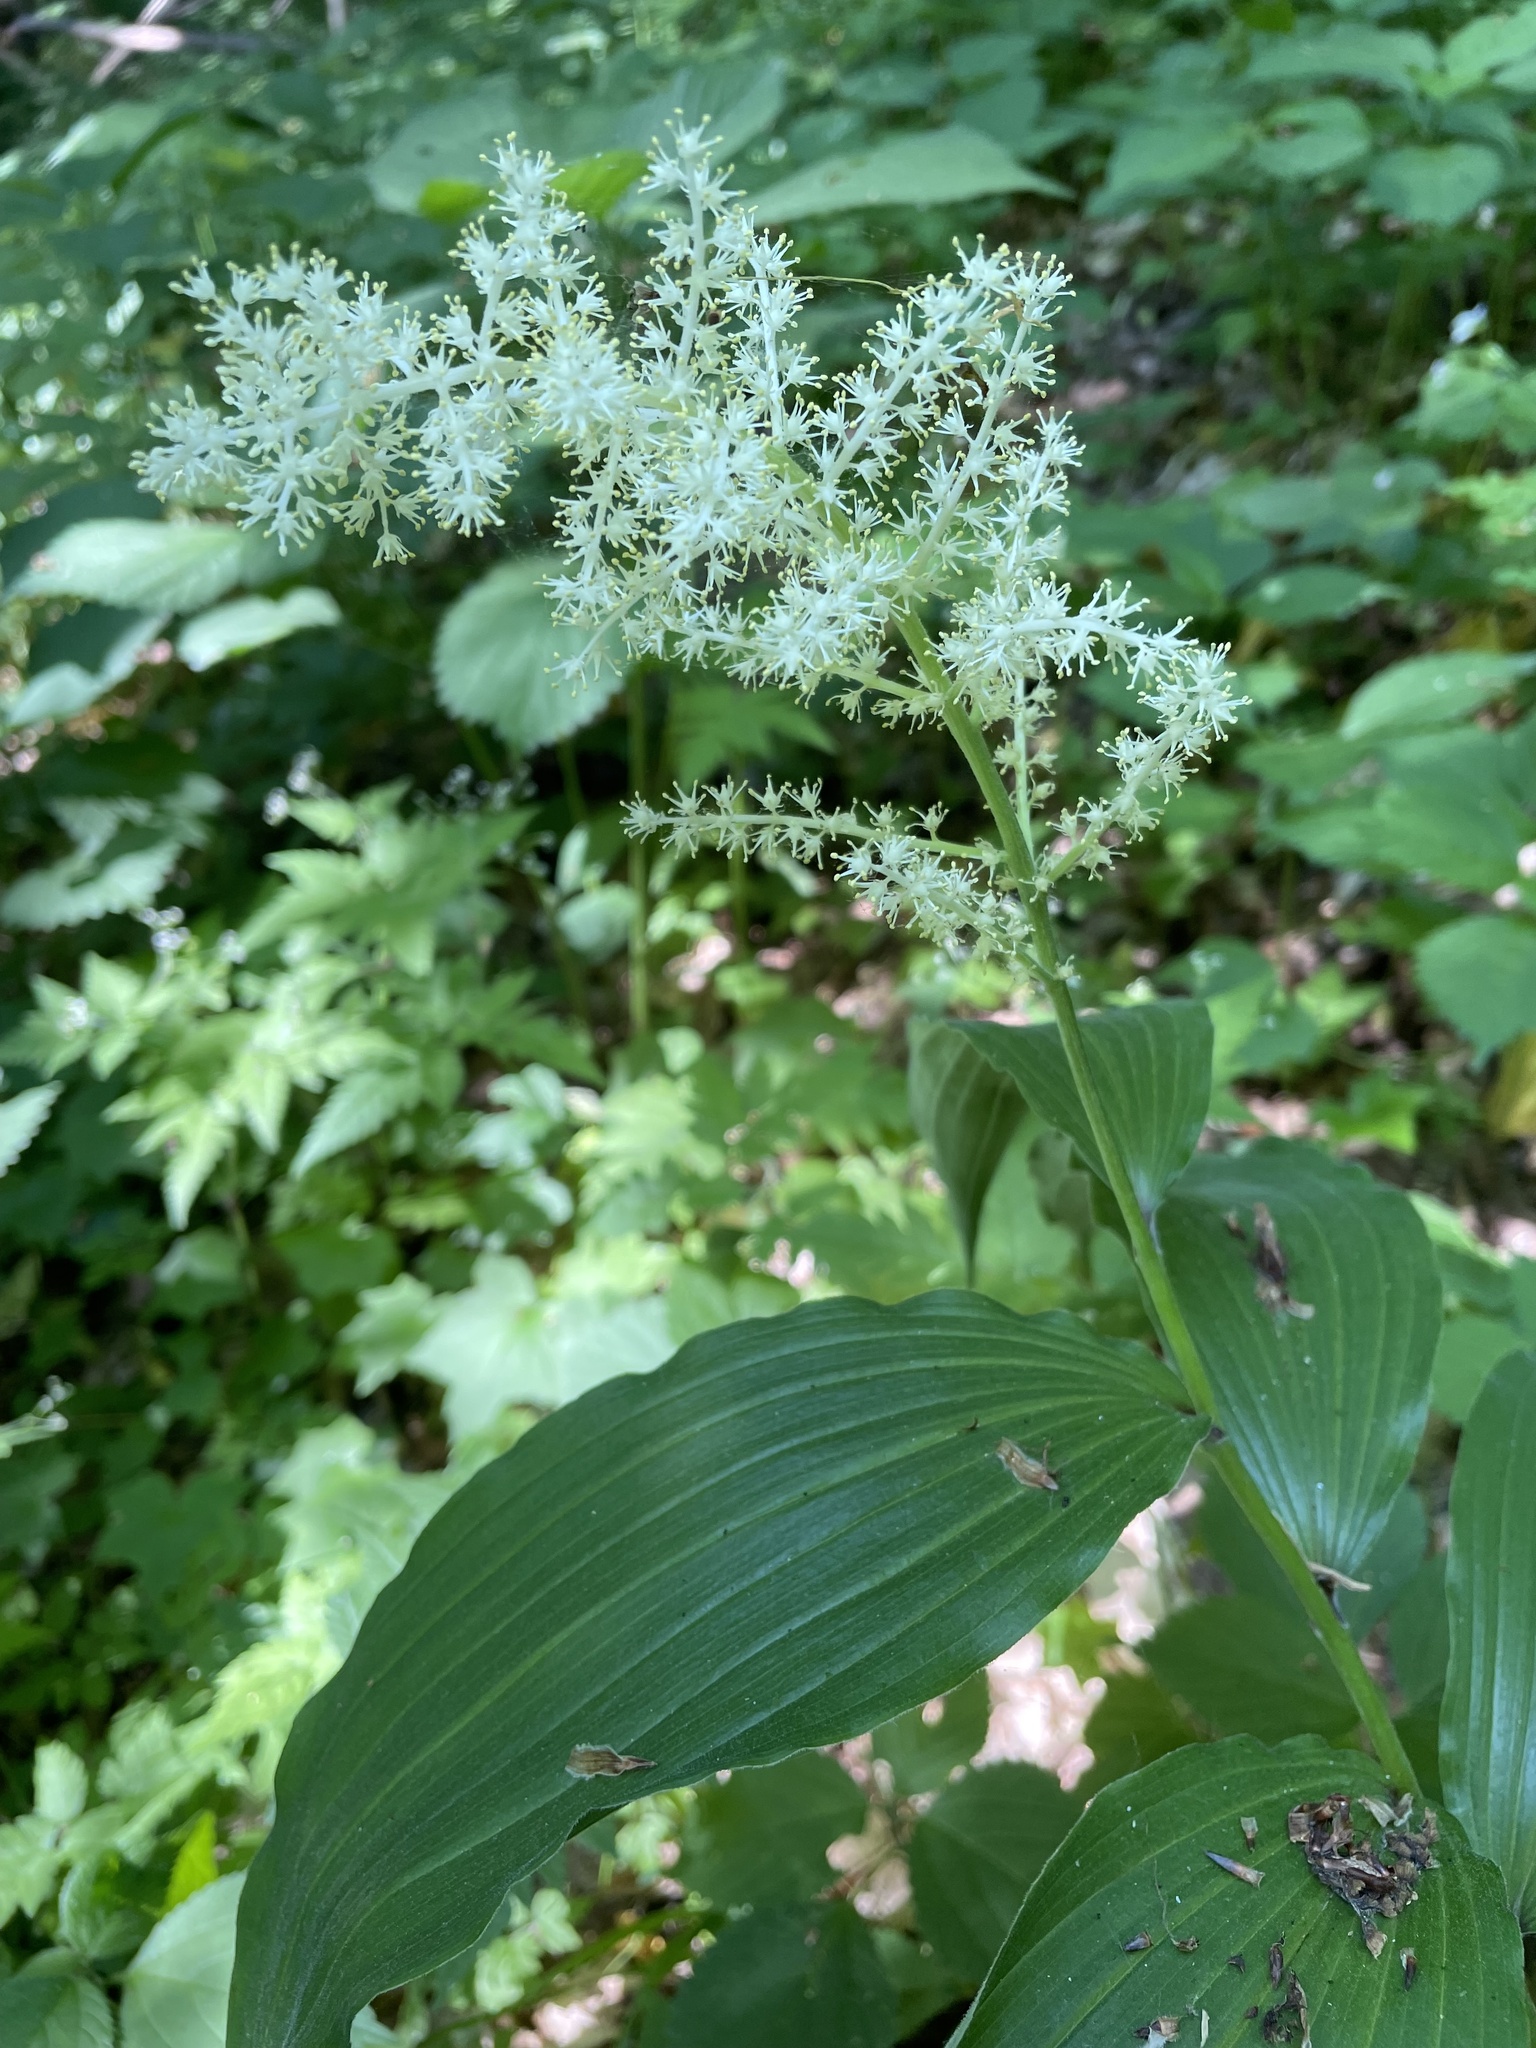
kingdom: Plantae
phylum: Tracheophyta
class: Liliopsida
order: Asparagales
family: Asparagaceae
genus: Maianthemum
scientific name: Maianthemum racemosum
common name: False spikenard
